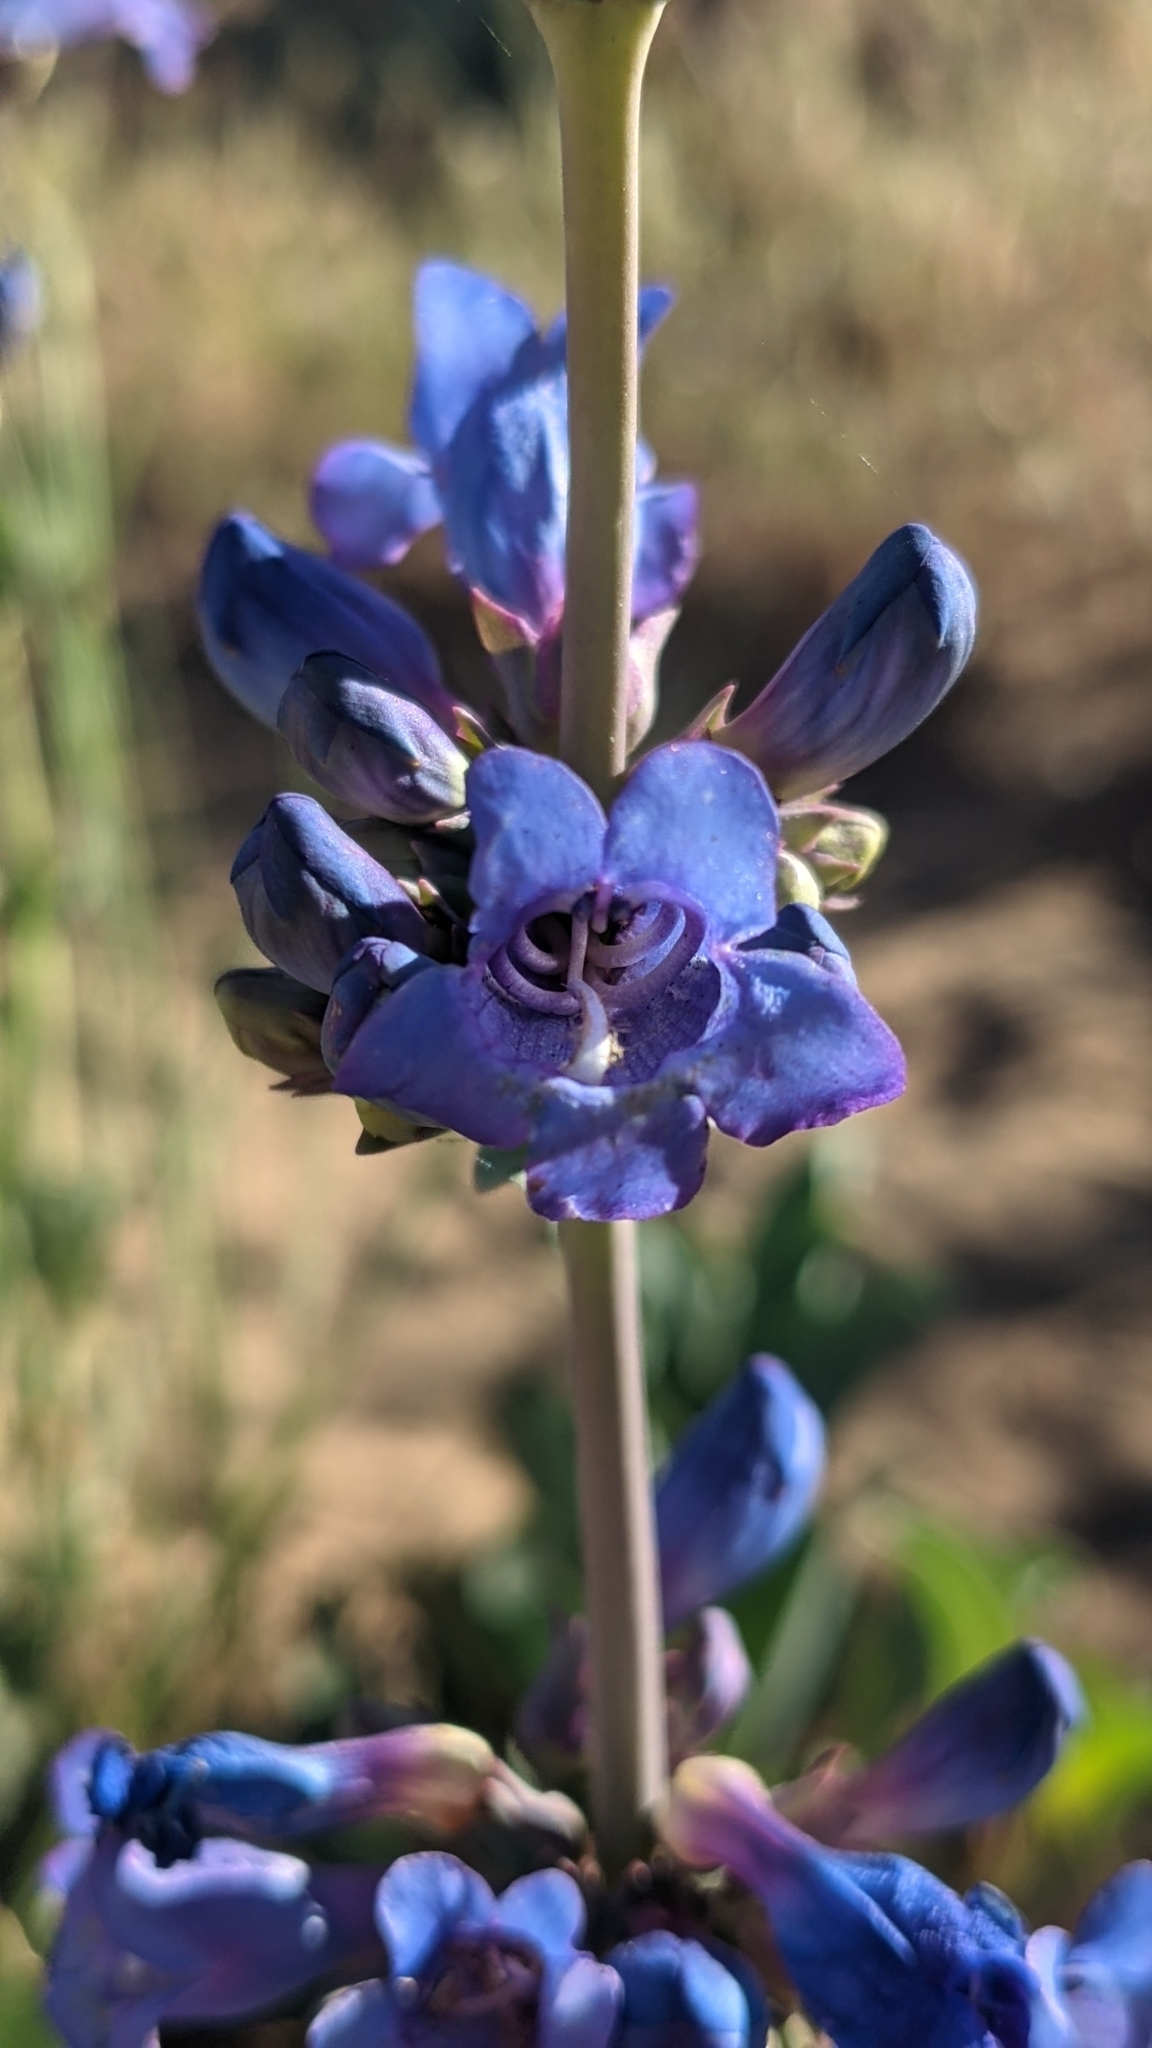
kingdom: Plantae
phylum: Tracheophyta
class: Magnoliopsida
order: Lamiales
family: Plantaginaceae
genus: Penstemon
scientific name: Penstemon pachyphyllus
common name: Thick-leaf penstemon
